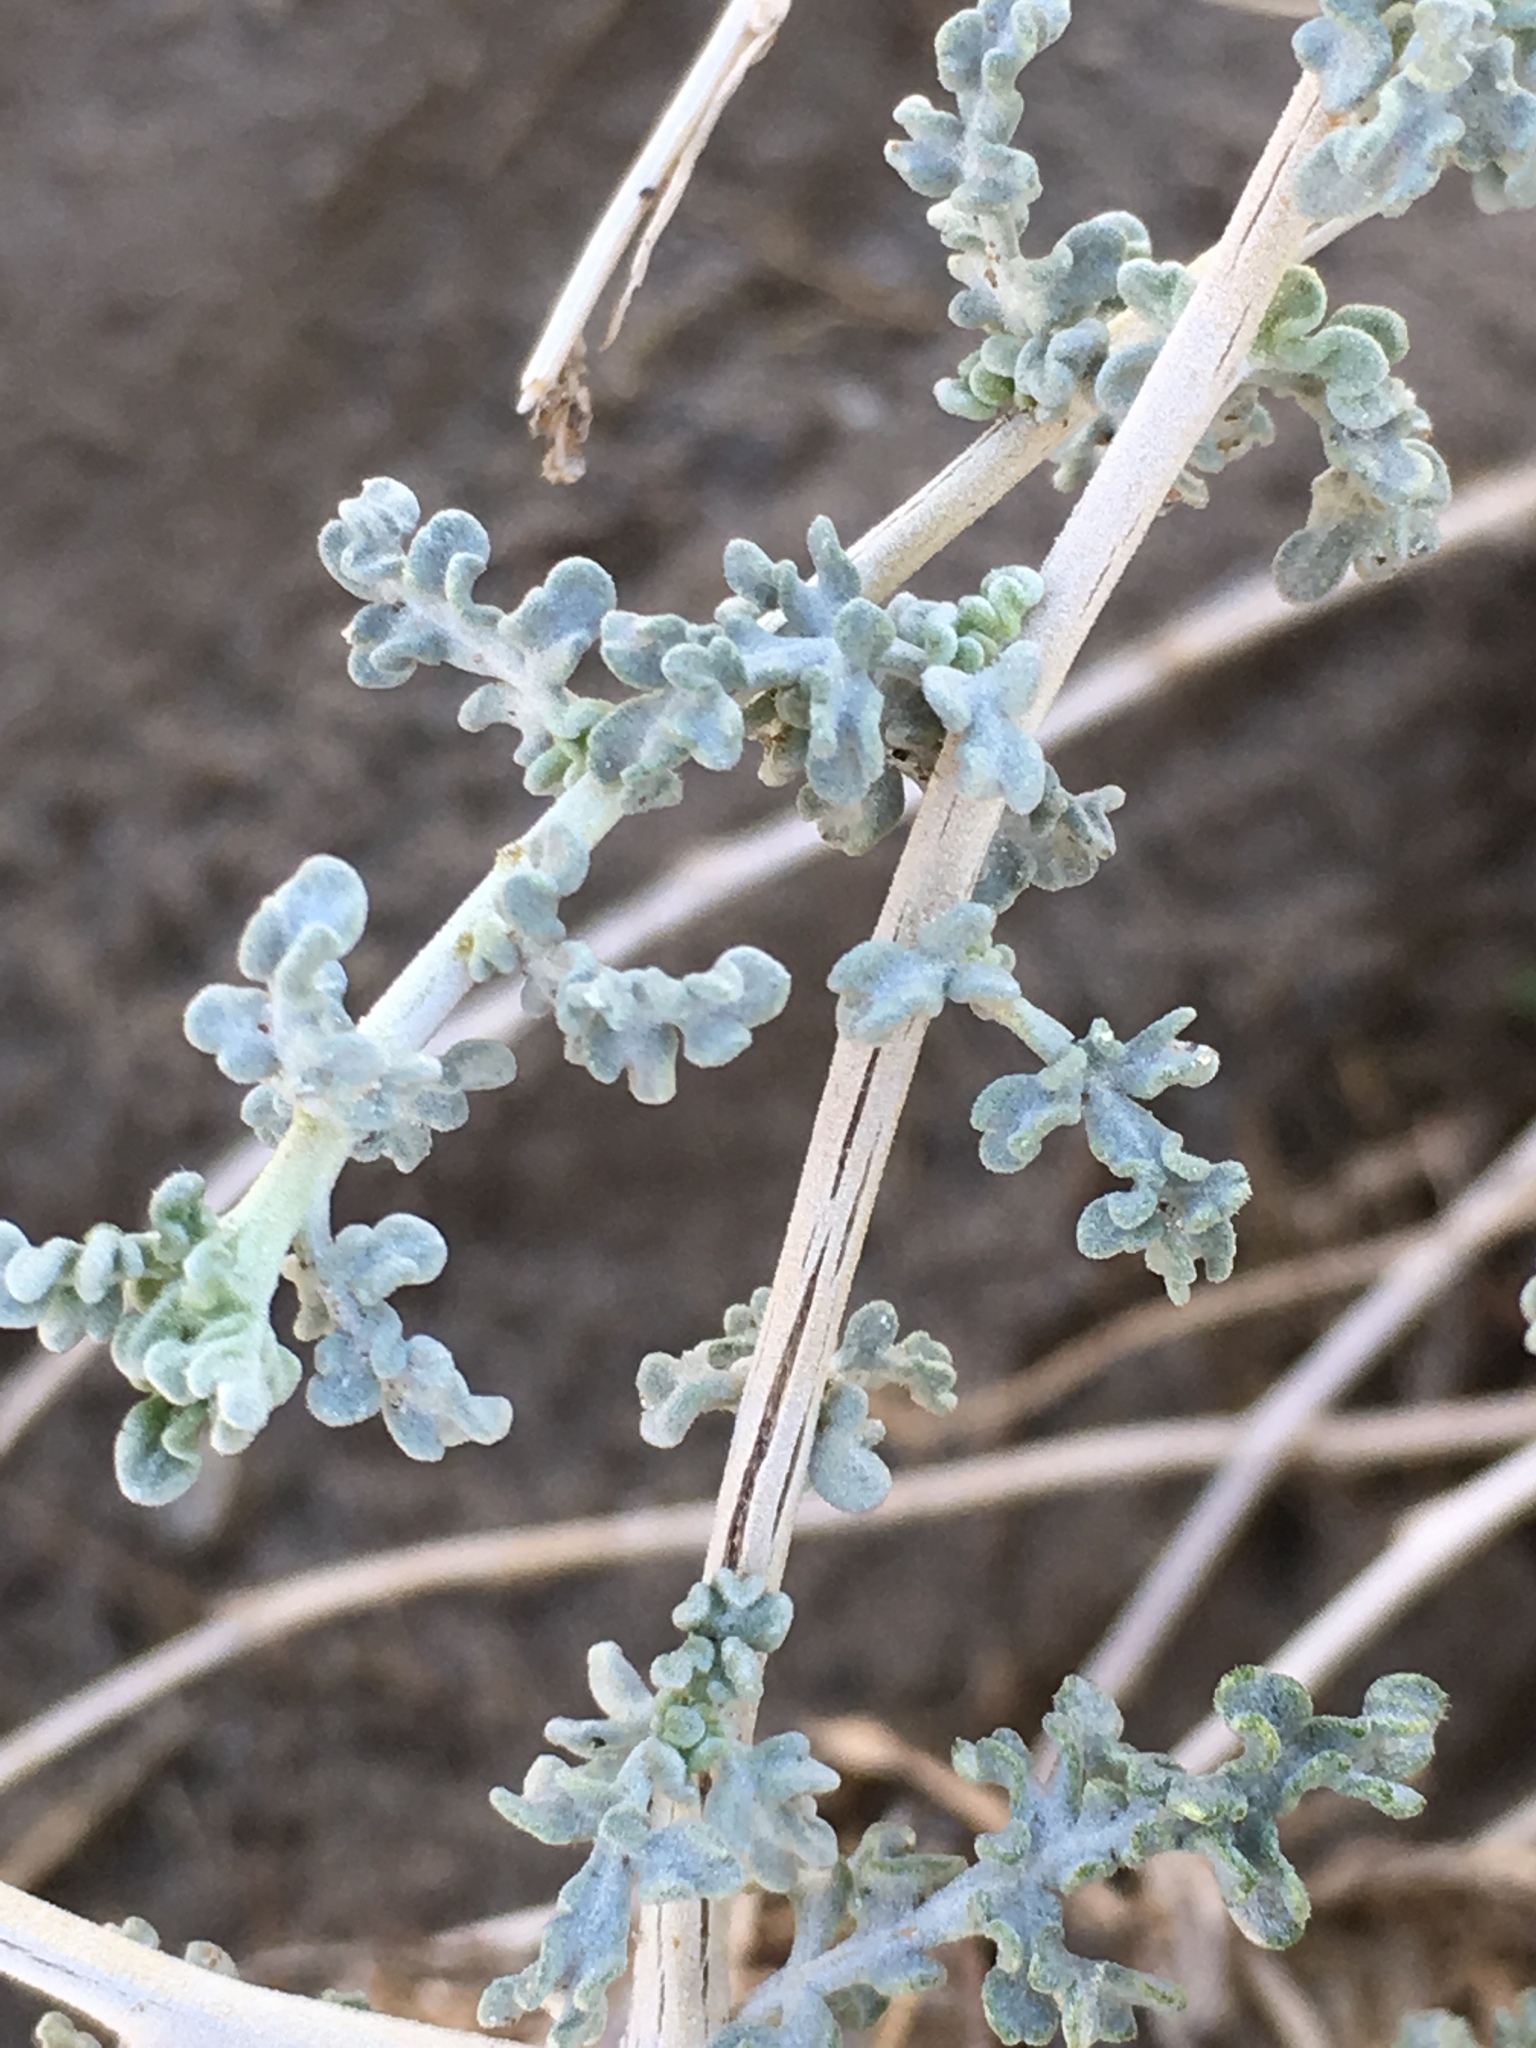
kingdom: Plantae
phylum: Tracheophyta
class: Magnoliopsida
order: Asterales
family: Asteraceae
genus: Ambrosia
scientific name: Ambrosia dumosa
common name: Bur-sage
